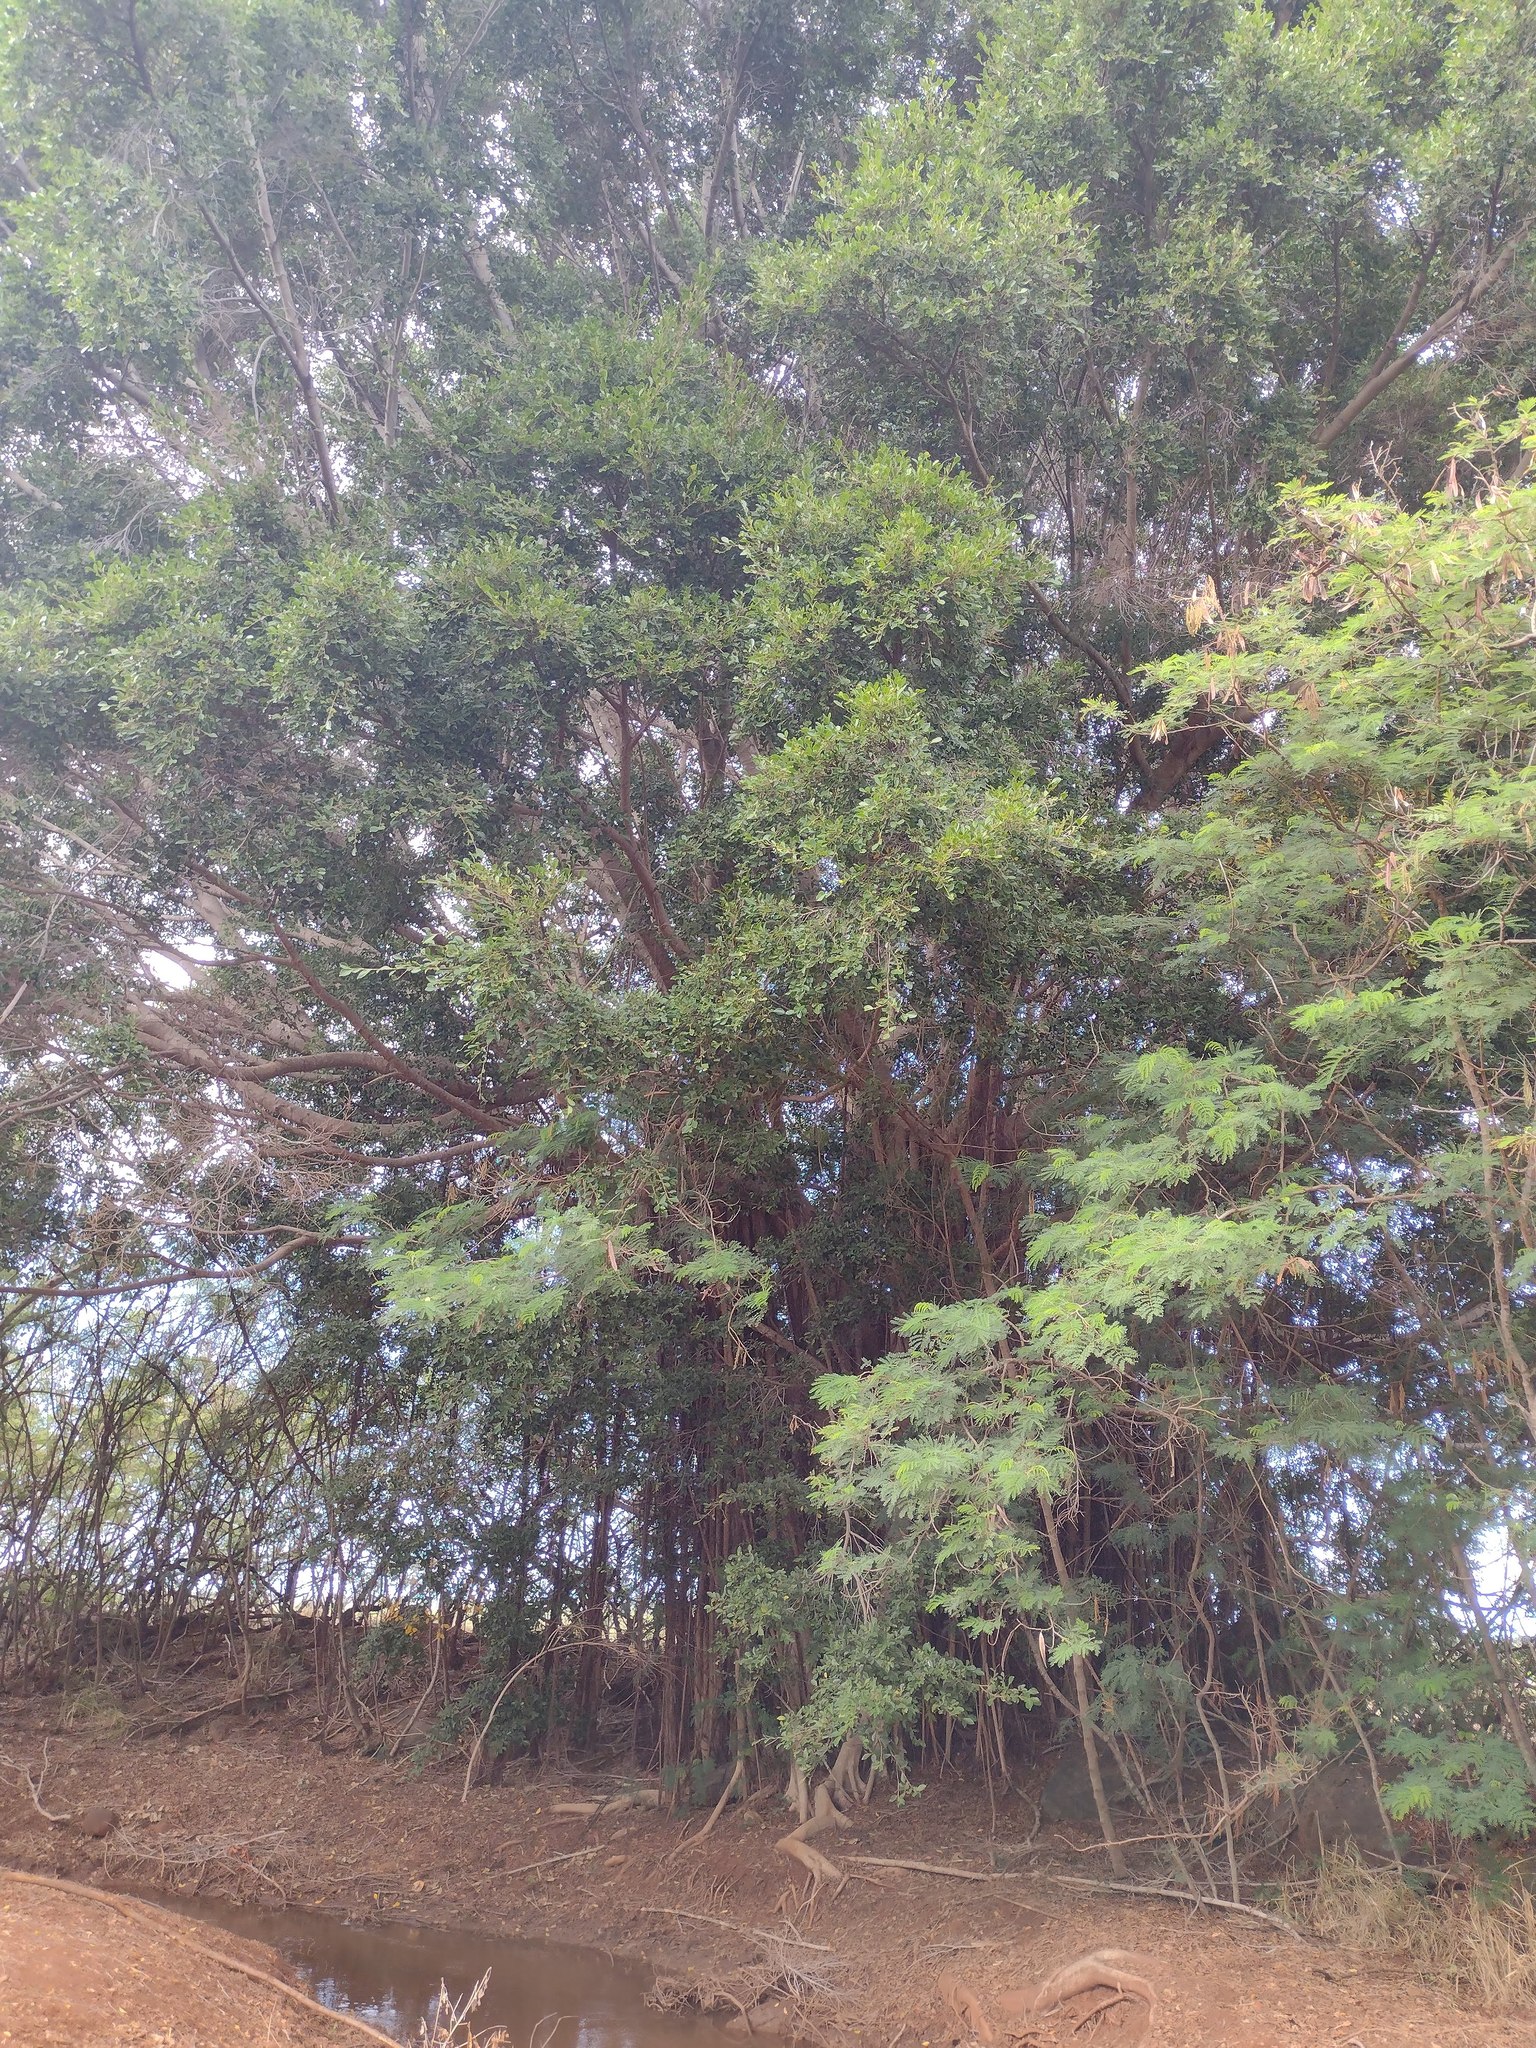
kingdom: Plantae
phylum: Tracheophyta
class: Magnoliopsida
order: Rosales
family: Moraceae
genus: Ficus
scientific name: Ficus microcarpa
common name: Chinese banyan
